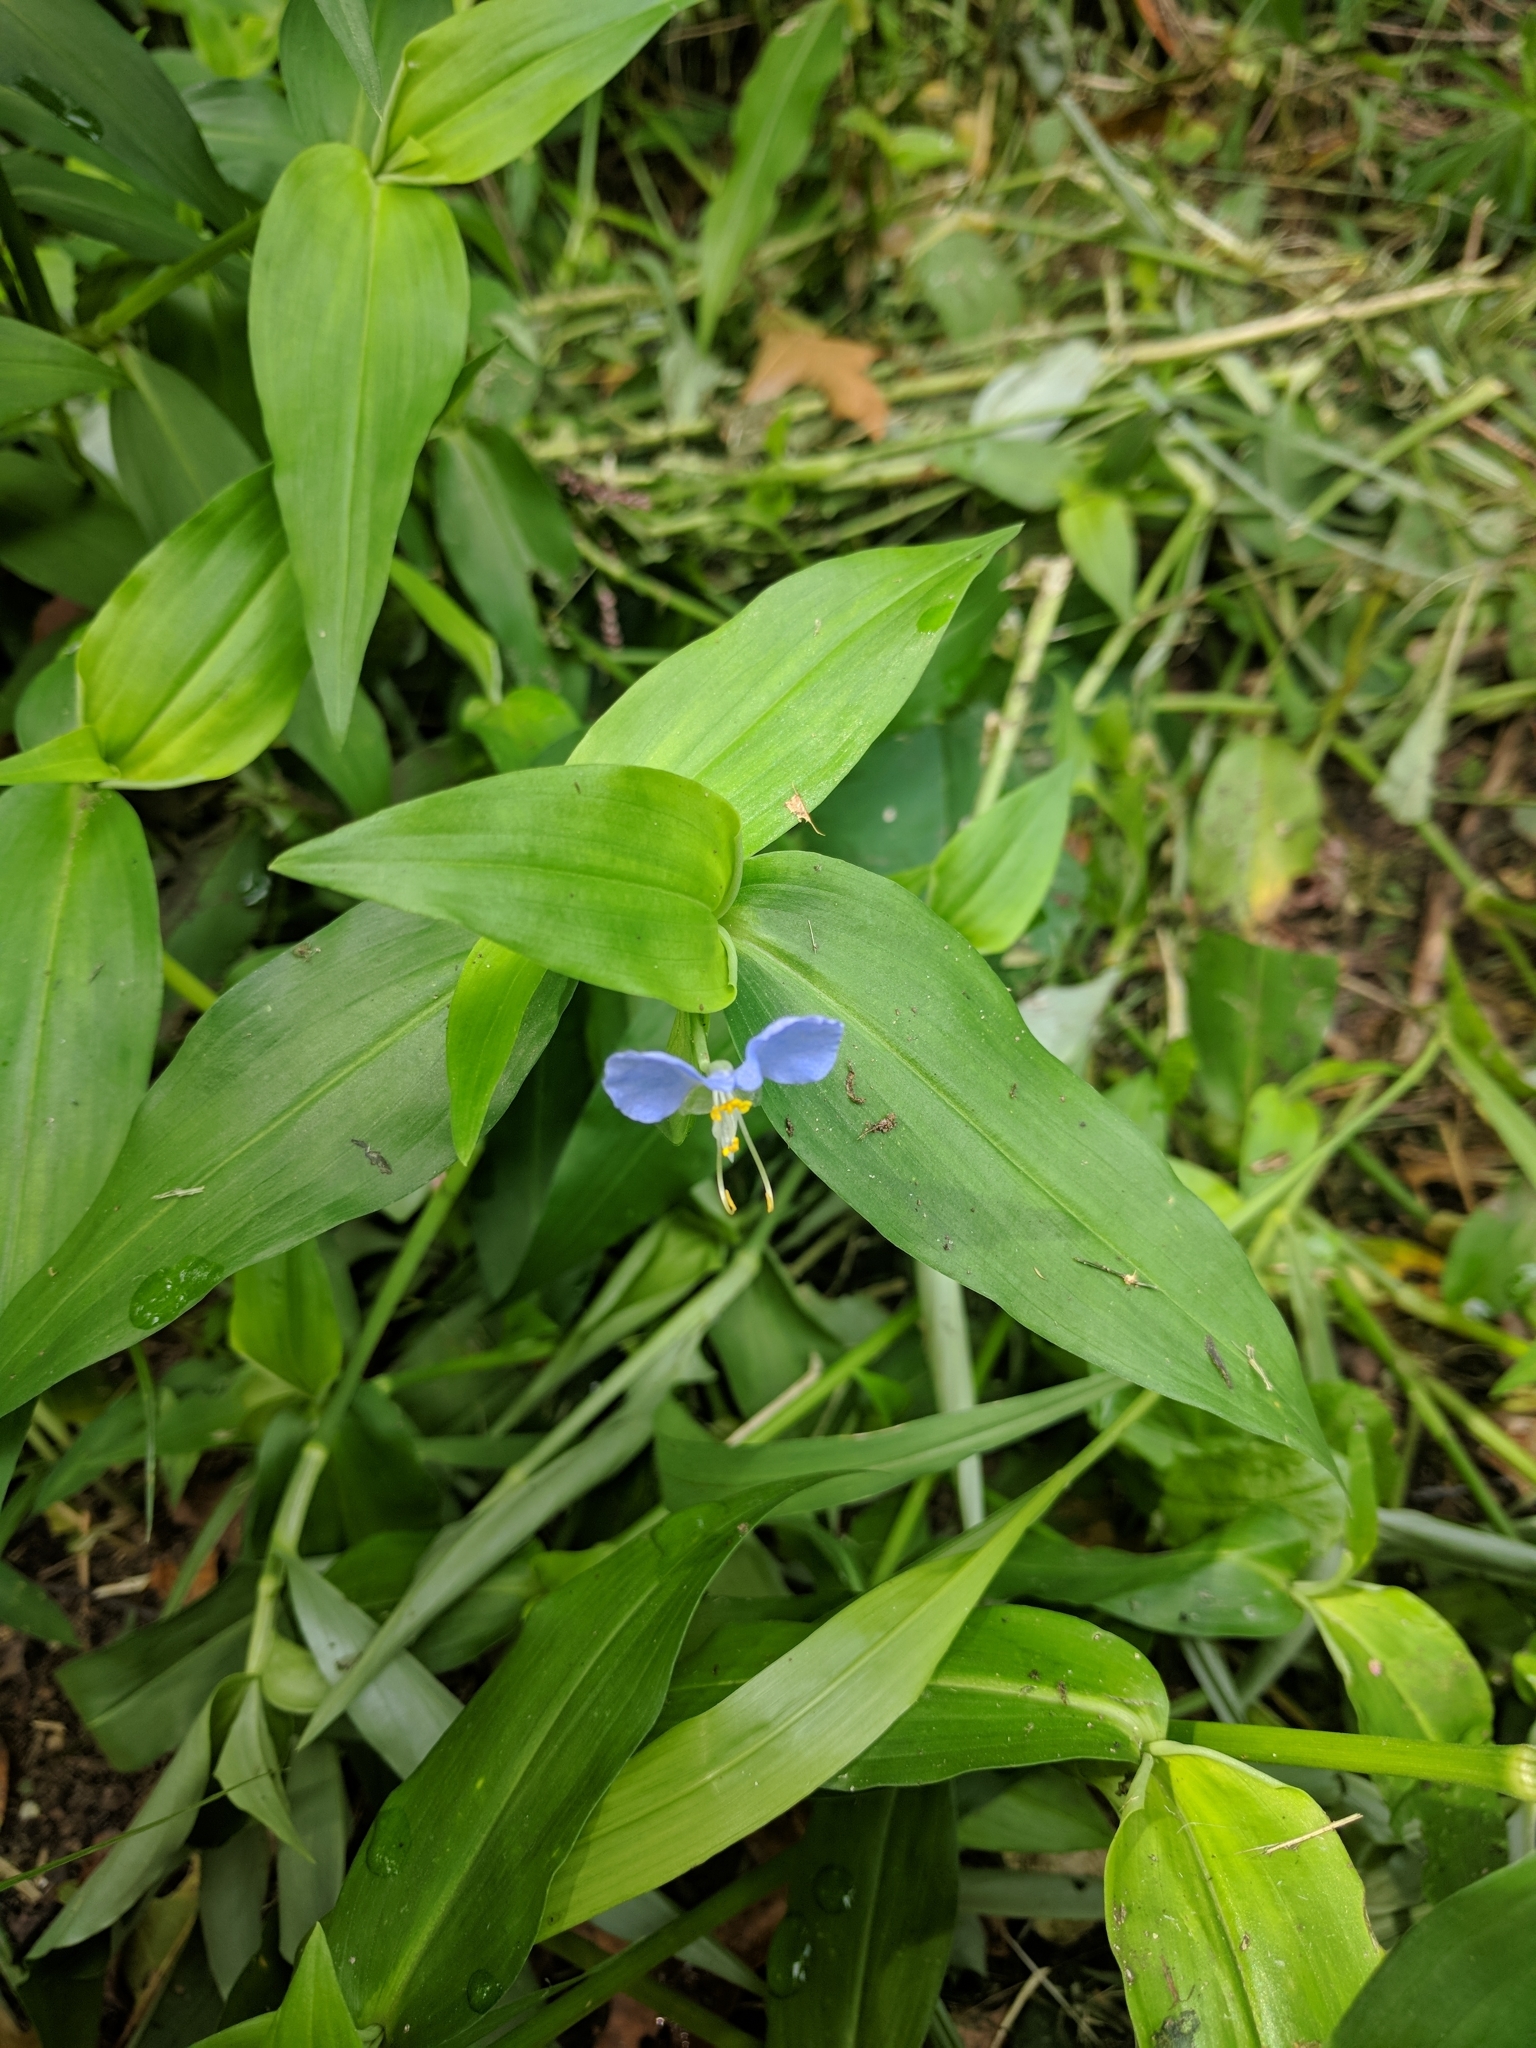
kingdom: Plantae
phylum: Tracheophyta
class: Liliopsida
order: Commelinales
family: Commelinaceae
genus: Commelina
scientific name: Commelina communis
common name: Asiatic dayflower
